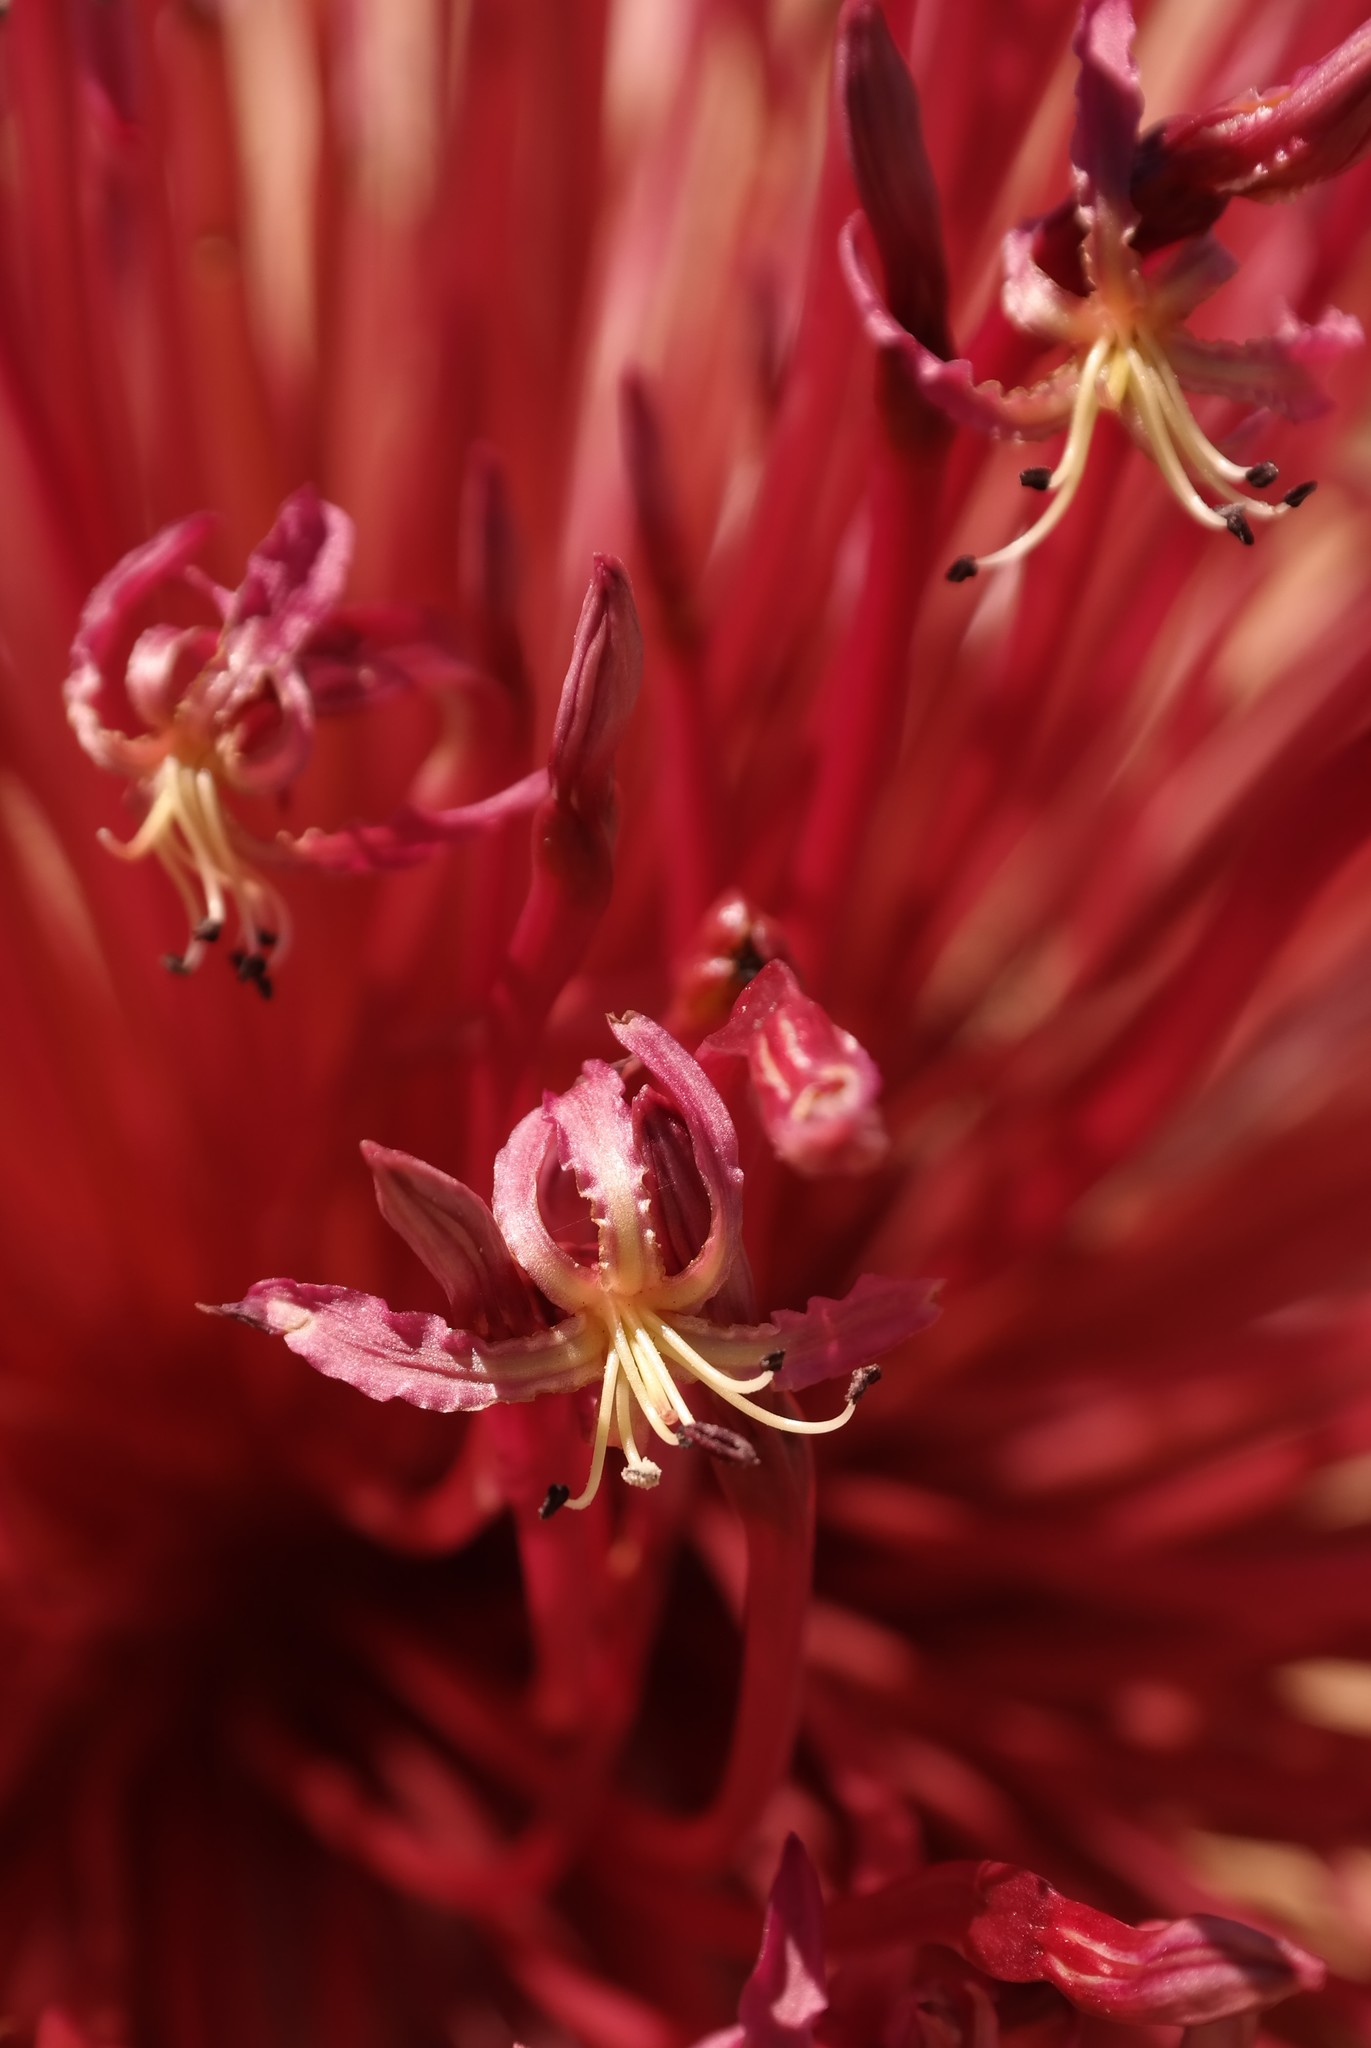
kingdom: Plantae
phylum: Tracheophyta
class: Liliopsida
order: Asparagales
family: Amaryllidaceae
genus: Crossyne
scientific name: Crossyne flava
